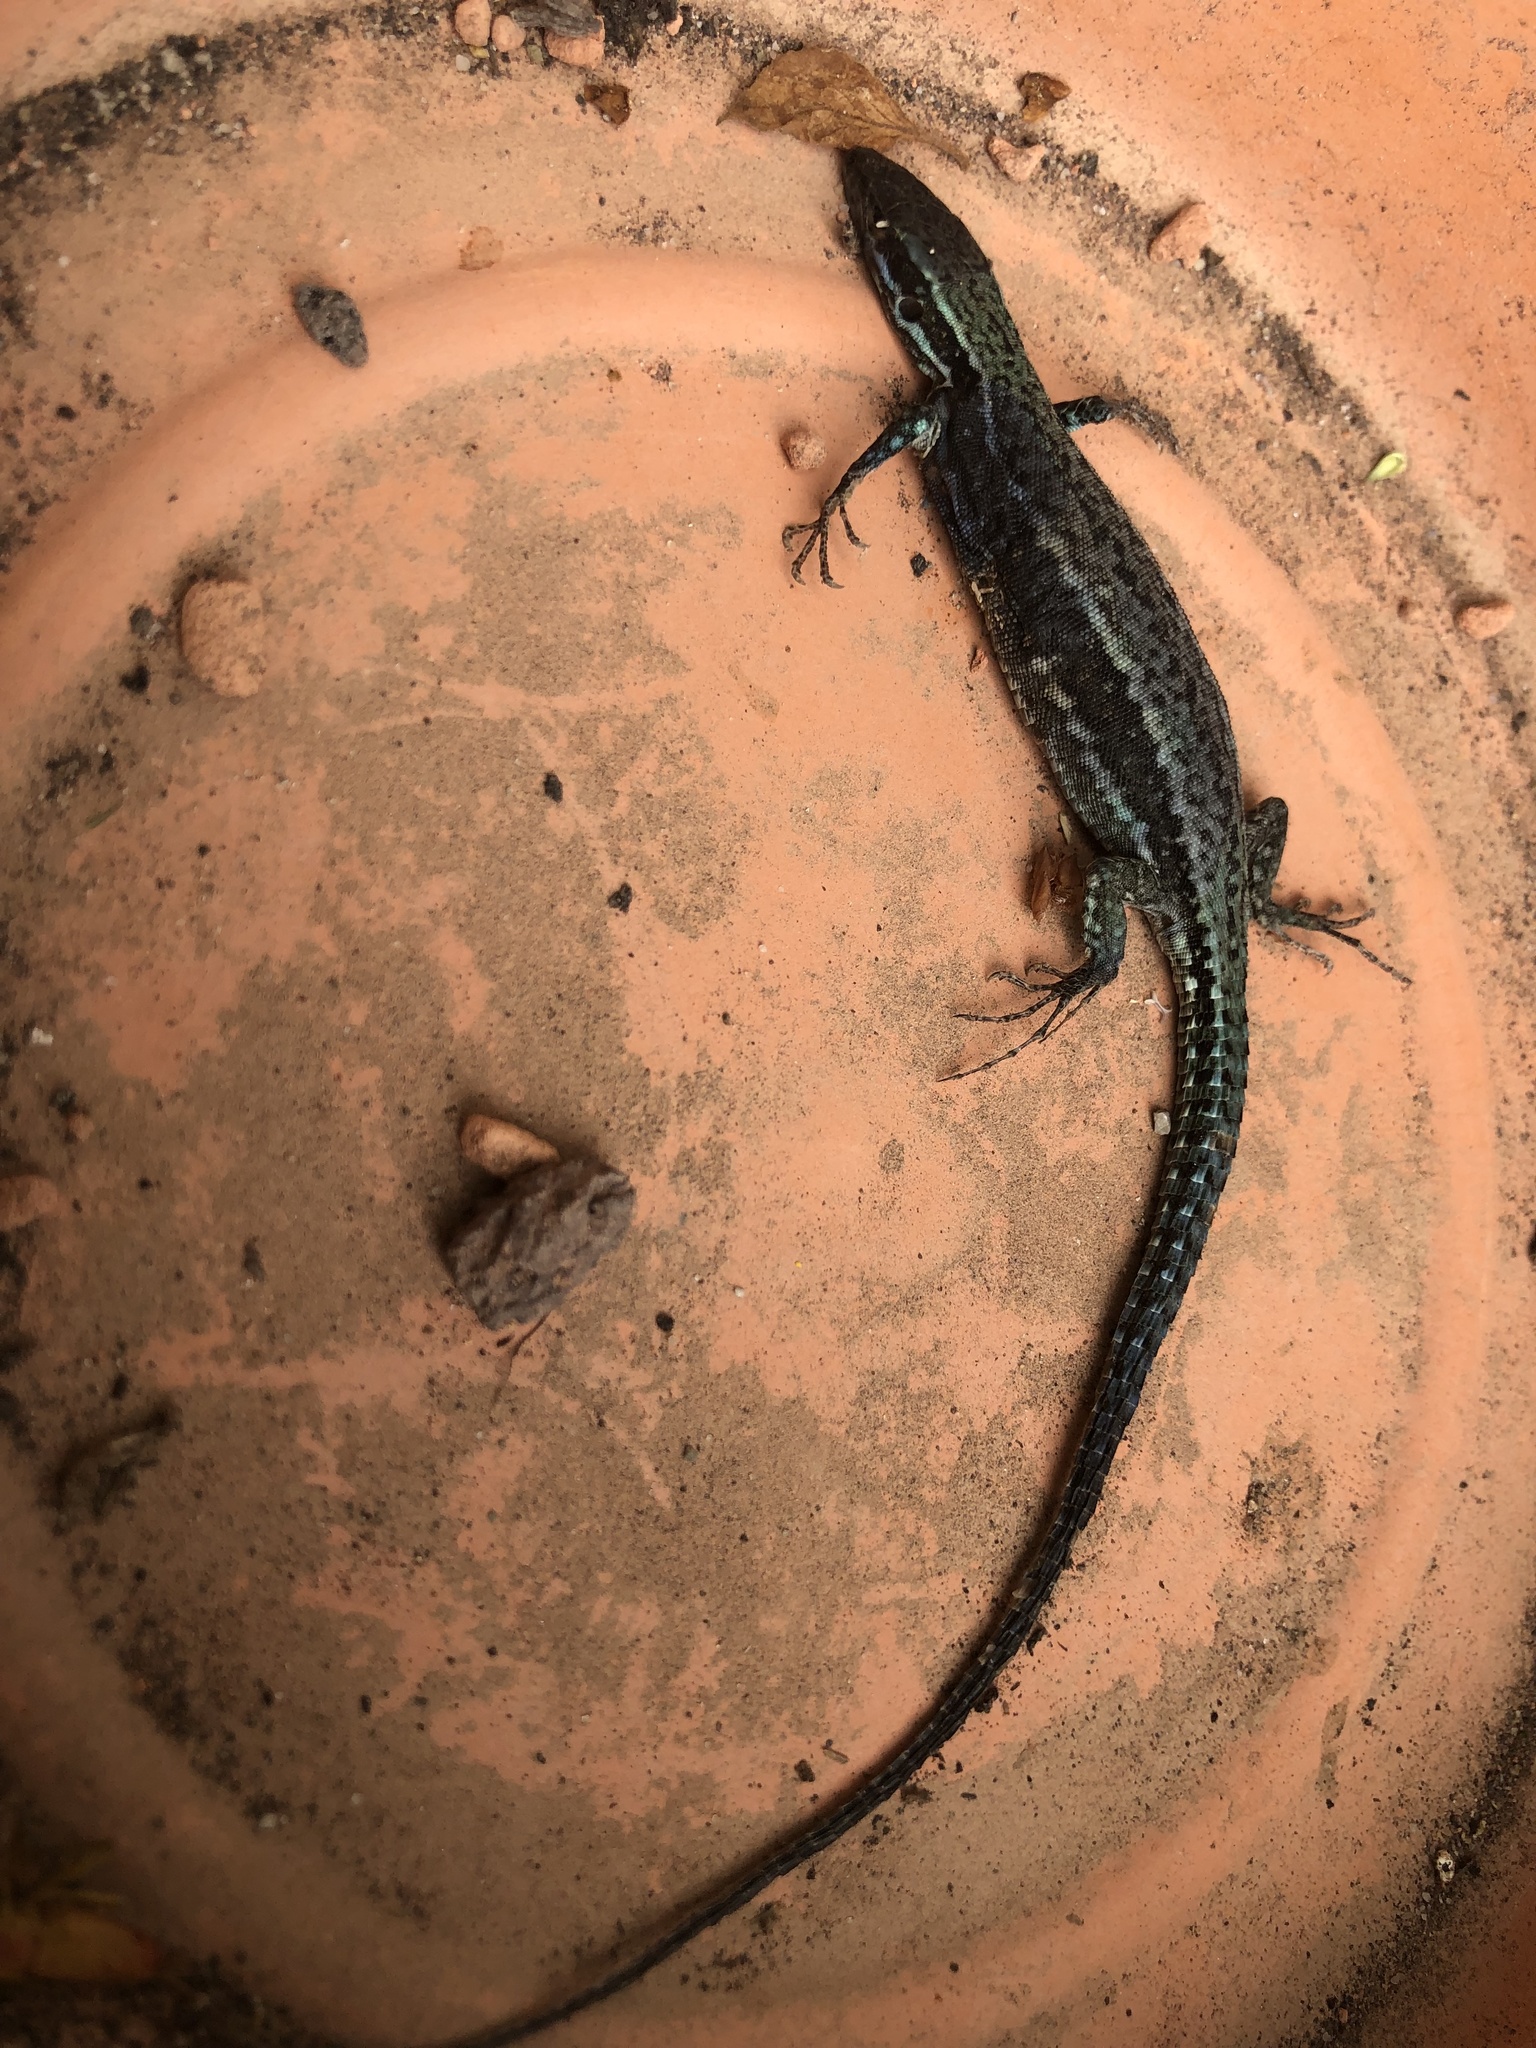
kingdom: Animalia
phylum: Chordata
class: Squamata
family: Lacertidae
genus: Podarcis
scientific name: Podarcis muralis
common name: Common wall lizard
